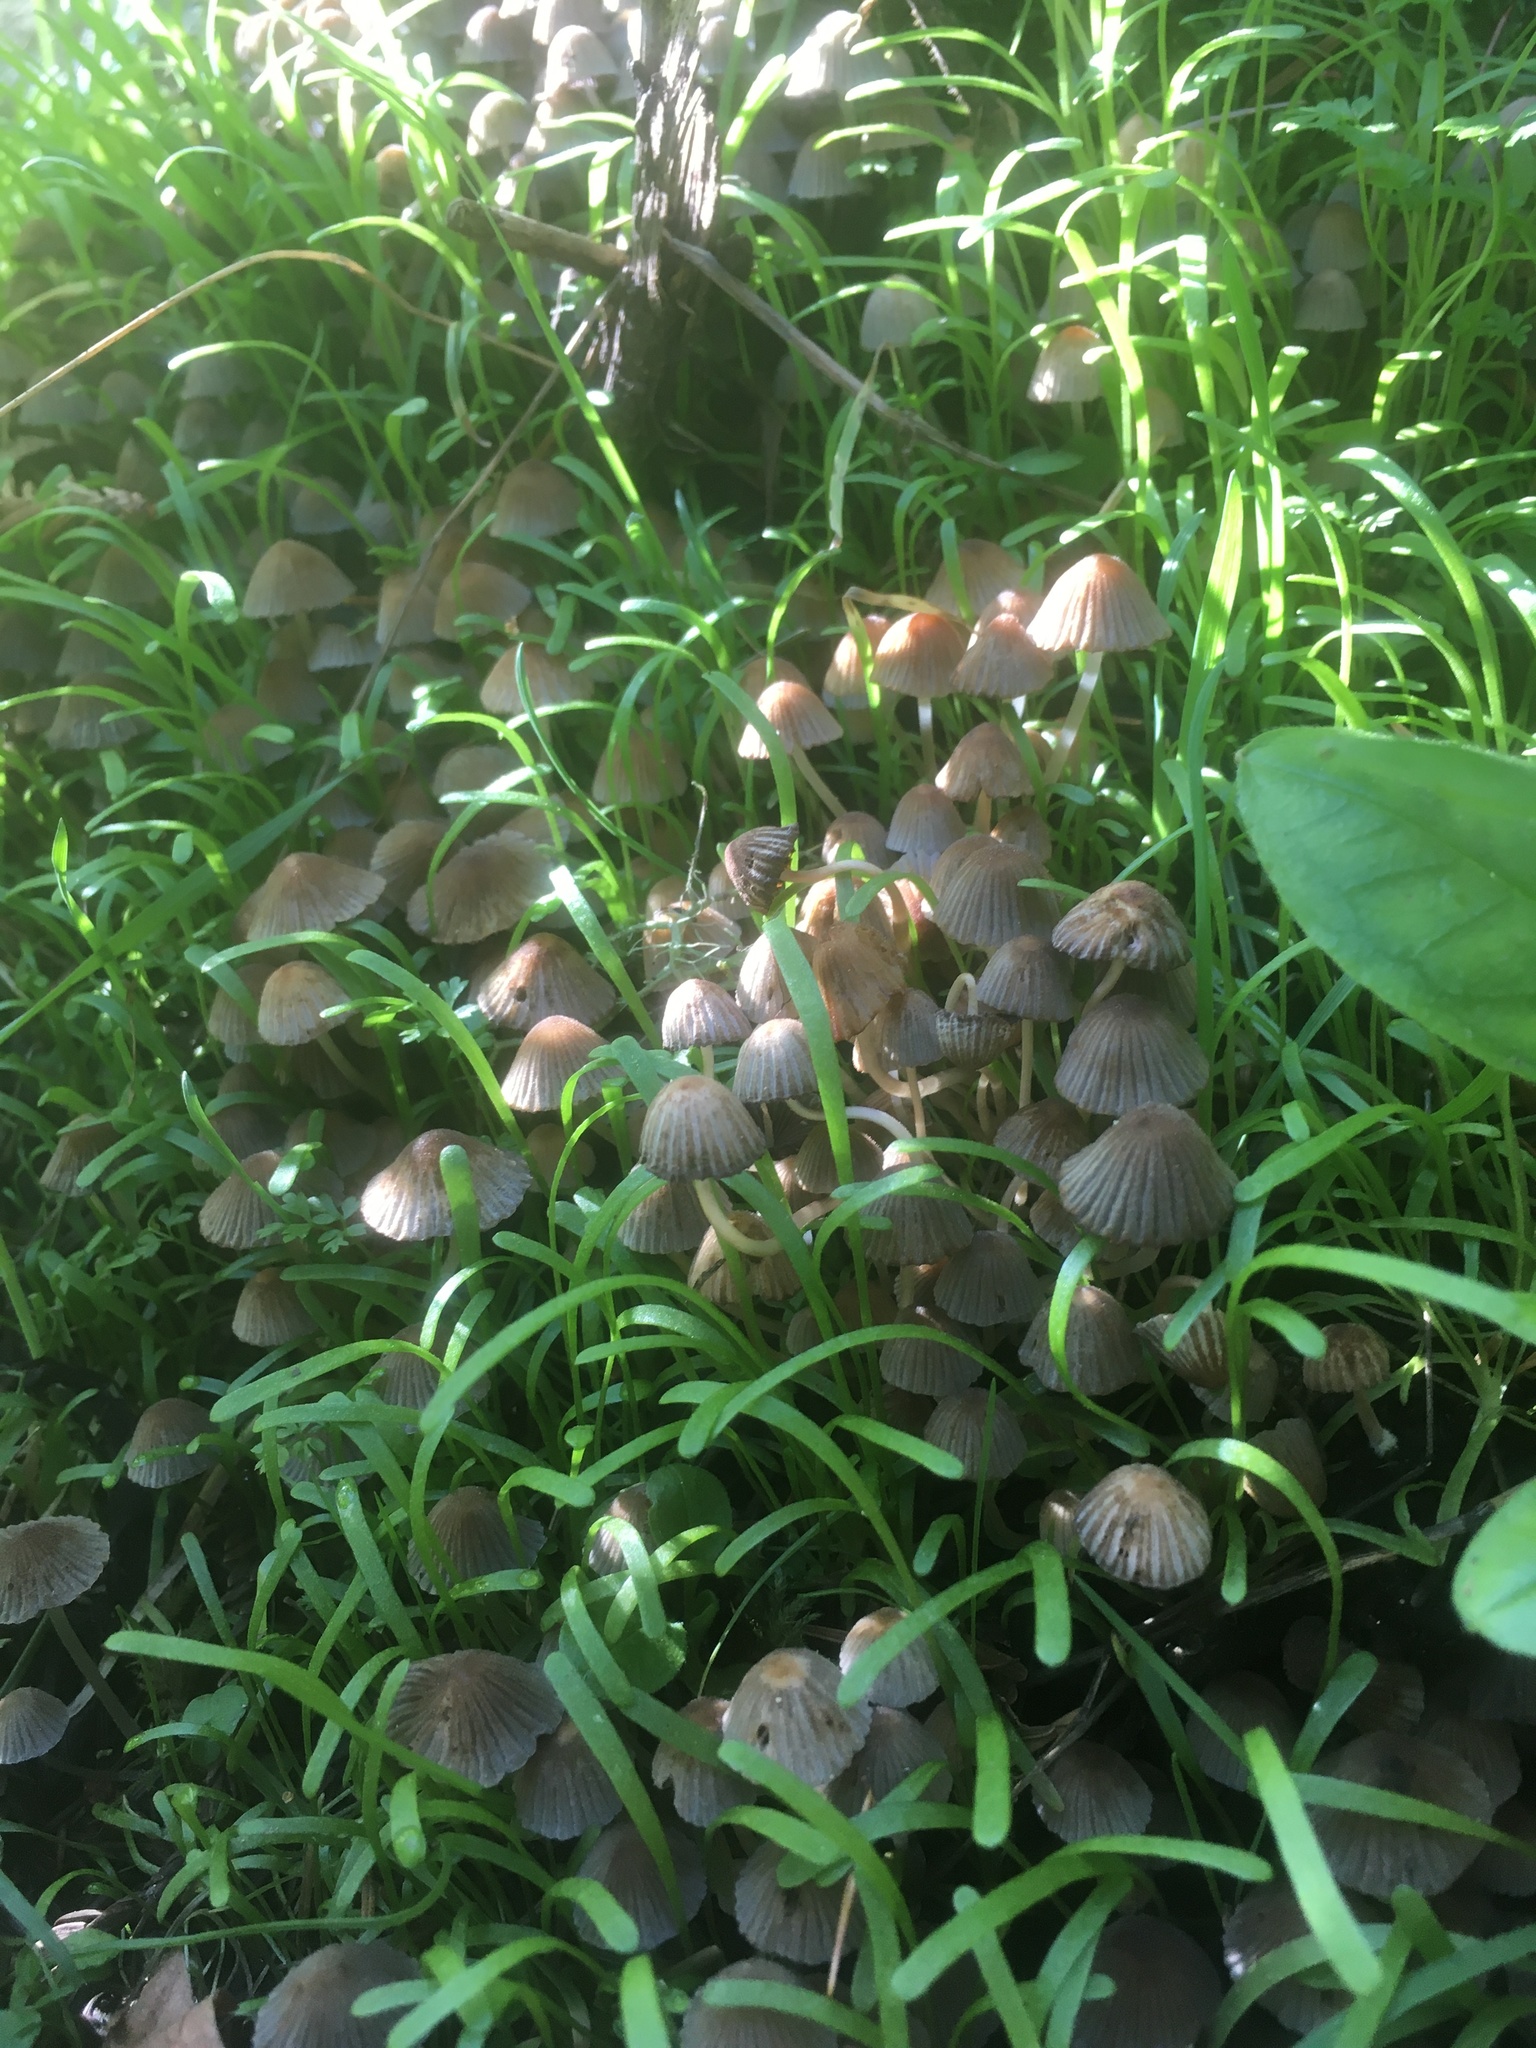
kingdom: Fungi
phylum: Basidiomycota
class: Agaricomycetes
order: Agaricales
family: Psathyrellaceae
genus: Coprinellus
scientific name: Coprinellus disseminatus
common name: Fairies' bonnets
